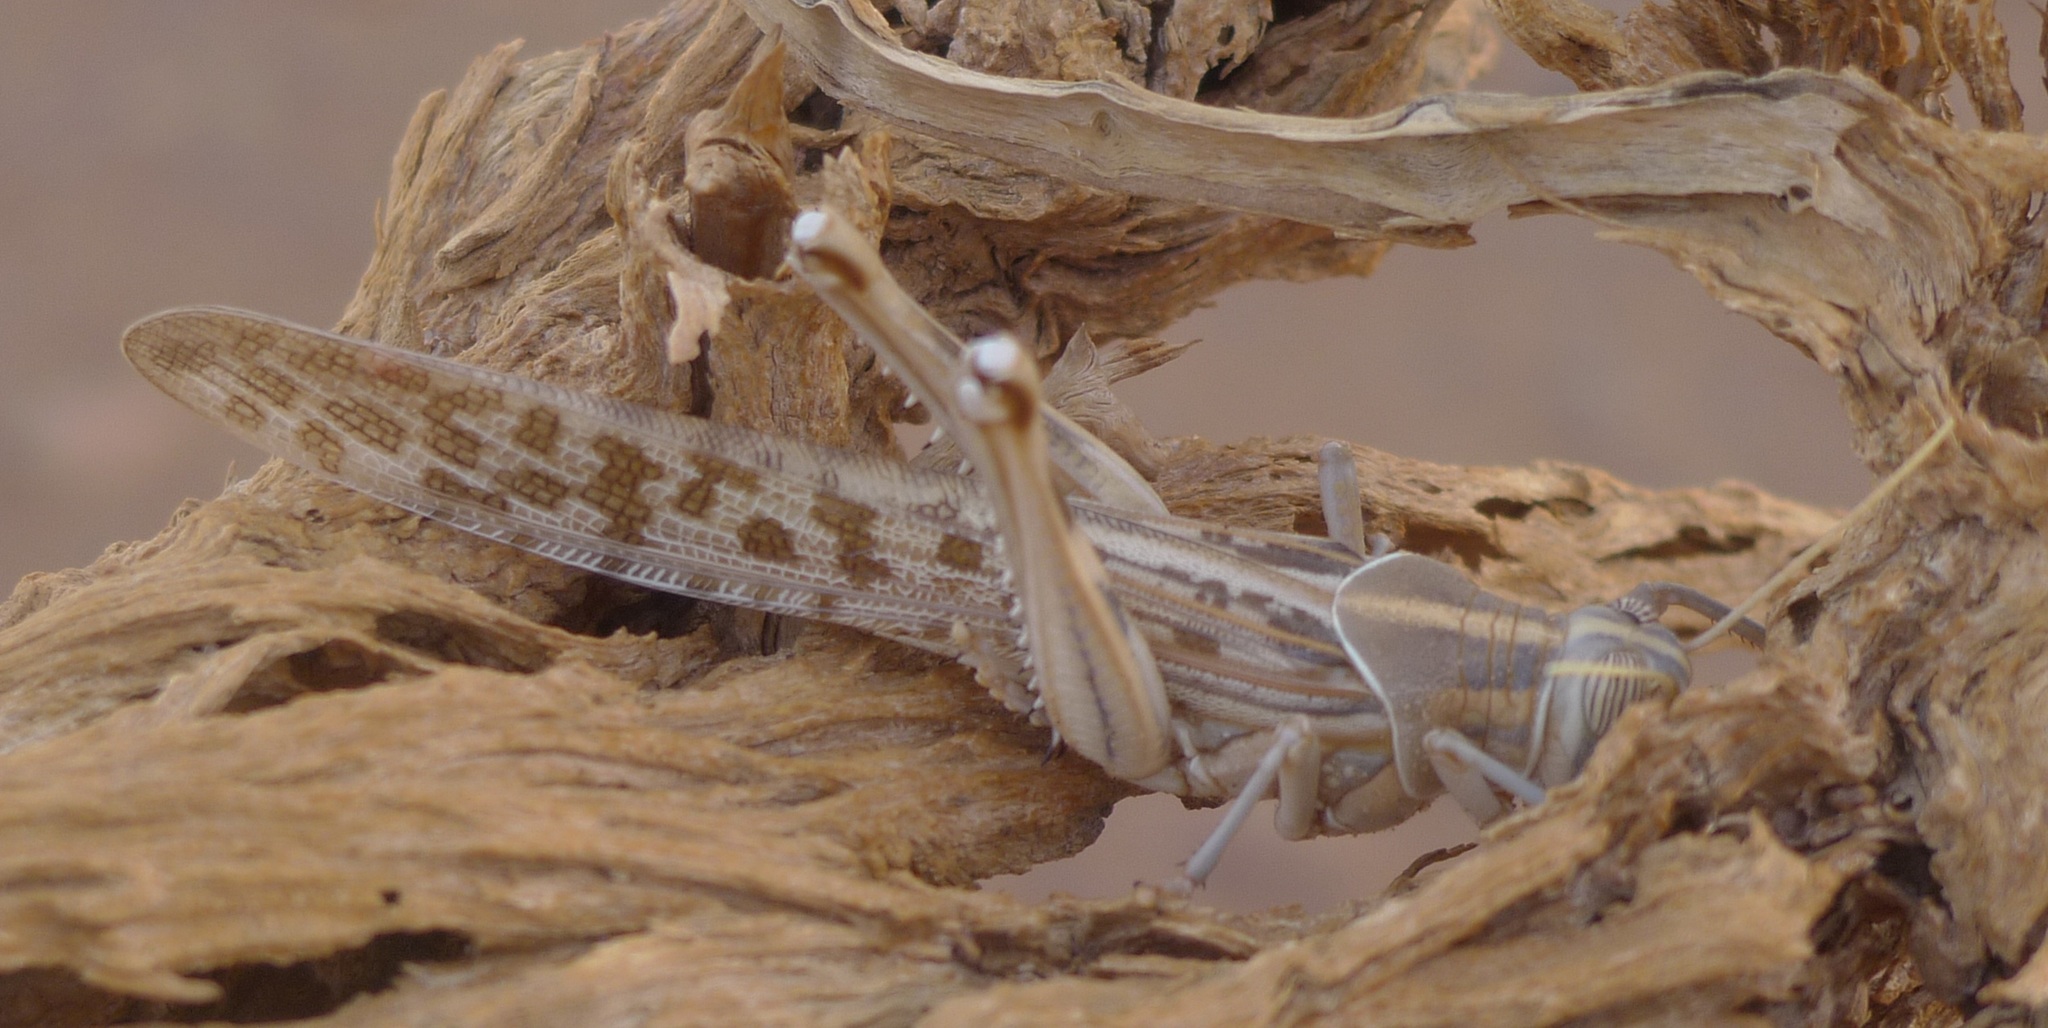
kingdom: Animalia
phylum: Arthropoda
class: Insecta
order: Orthoptera
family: Acrididae
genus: Schistocerca
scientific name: Schistocerca gregaria
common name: Desert locust
